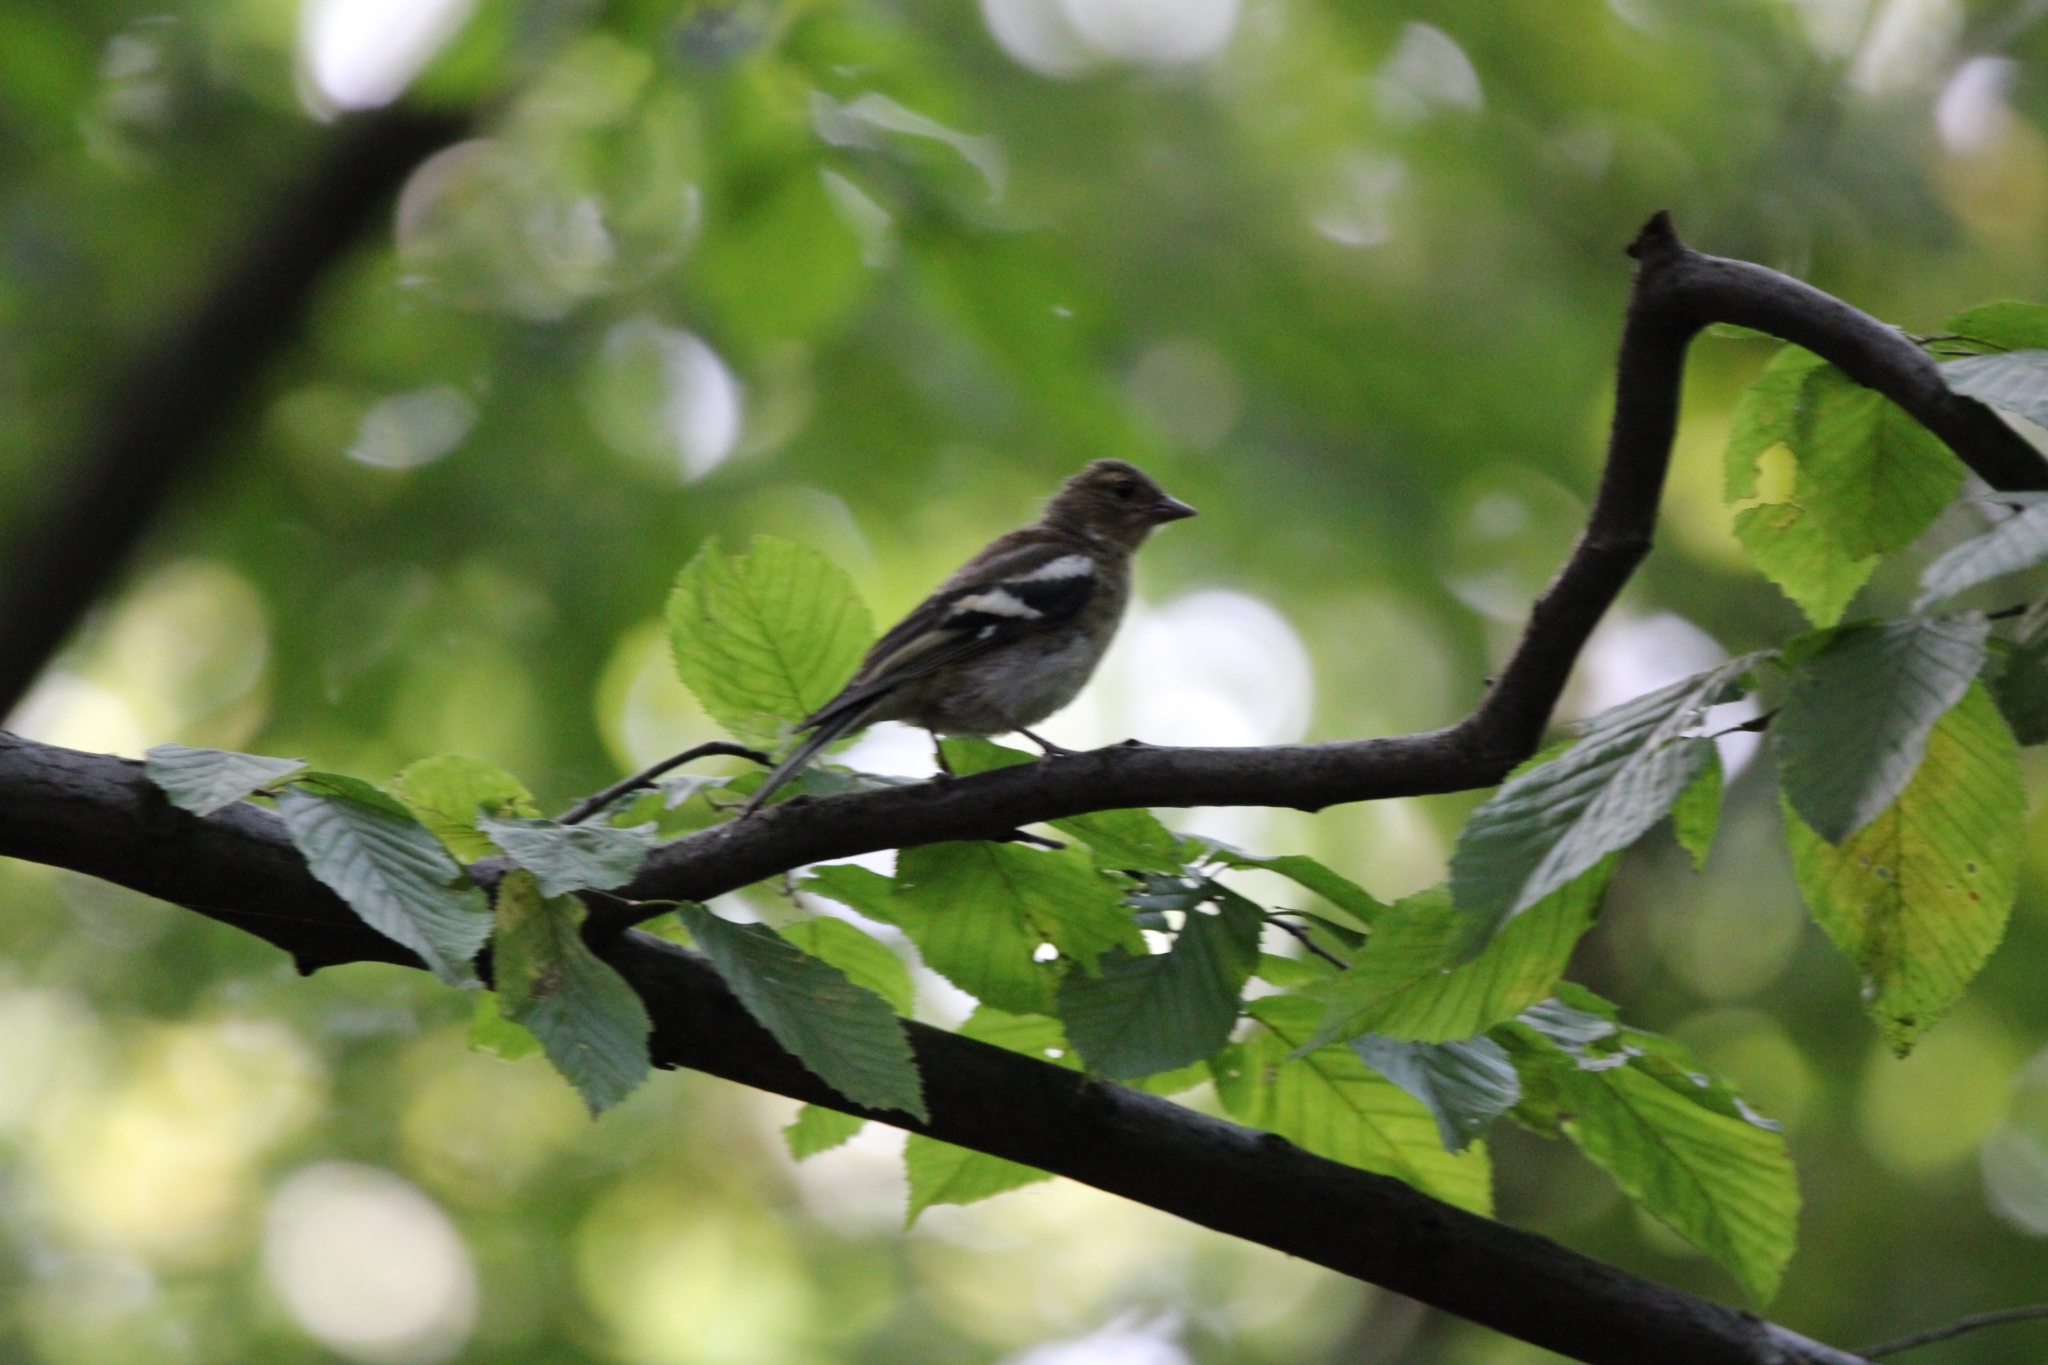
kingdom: Animalia
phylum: Chordata
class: Aves
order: Passeriformes
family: Fringillidae
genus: Fringilla
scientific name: Fringilla coelebs
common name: Common chaffinch
